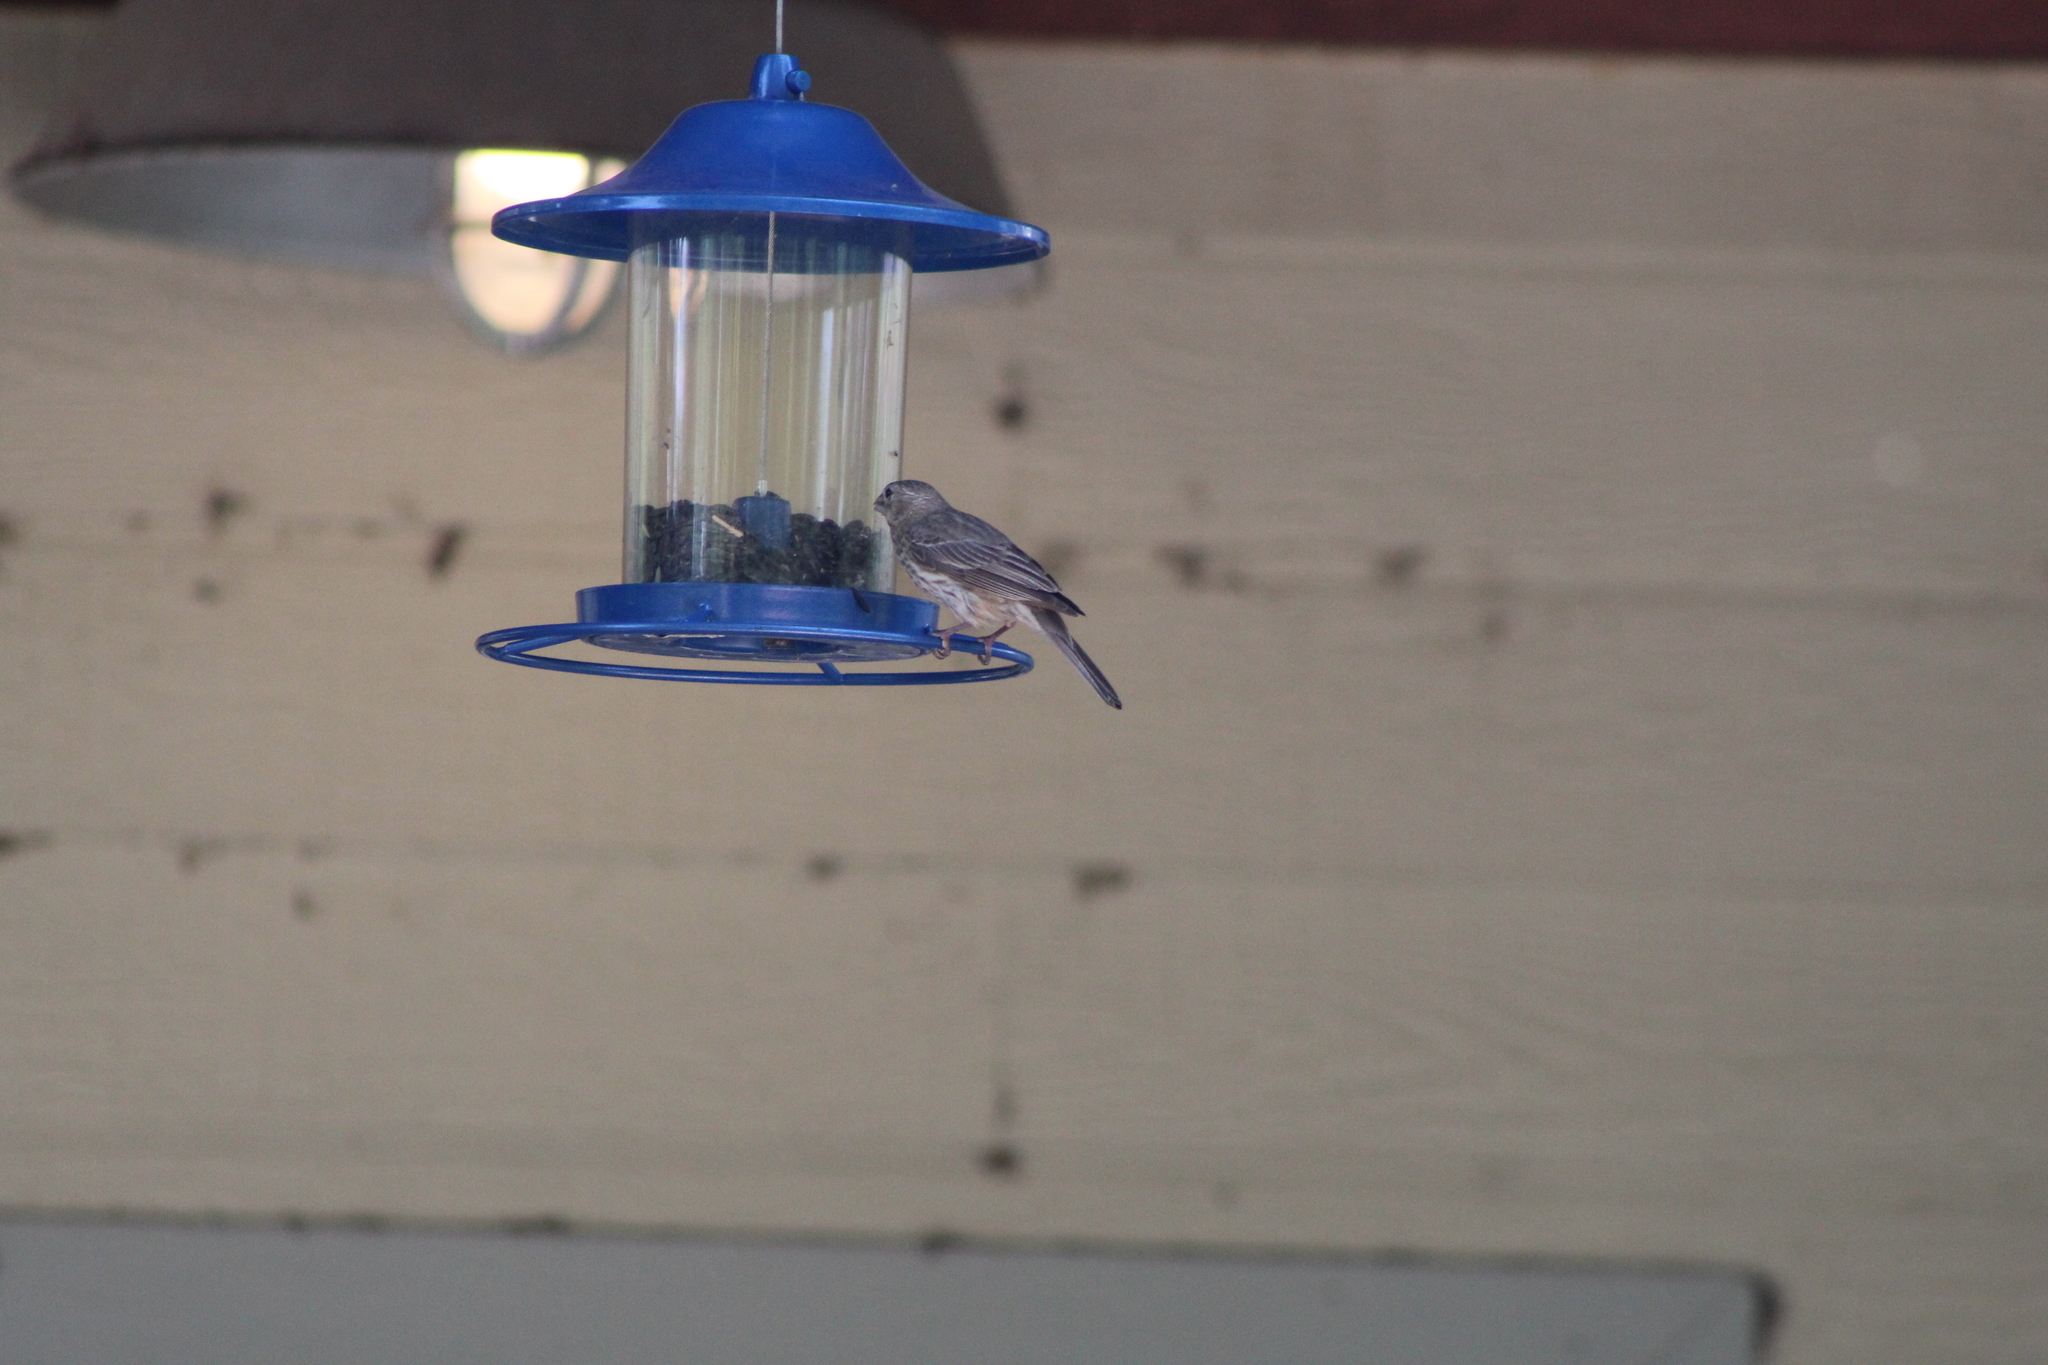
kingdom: Animalia
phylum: Chordata
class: Aves
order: Passeriformes
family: Fringillidae
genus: Haemorhous
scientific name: Haemorhous mexicanus
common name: House finch
